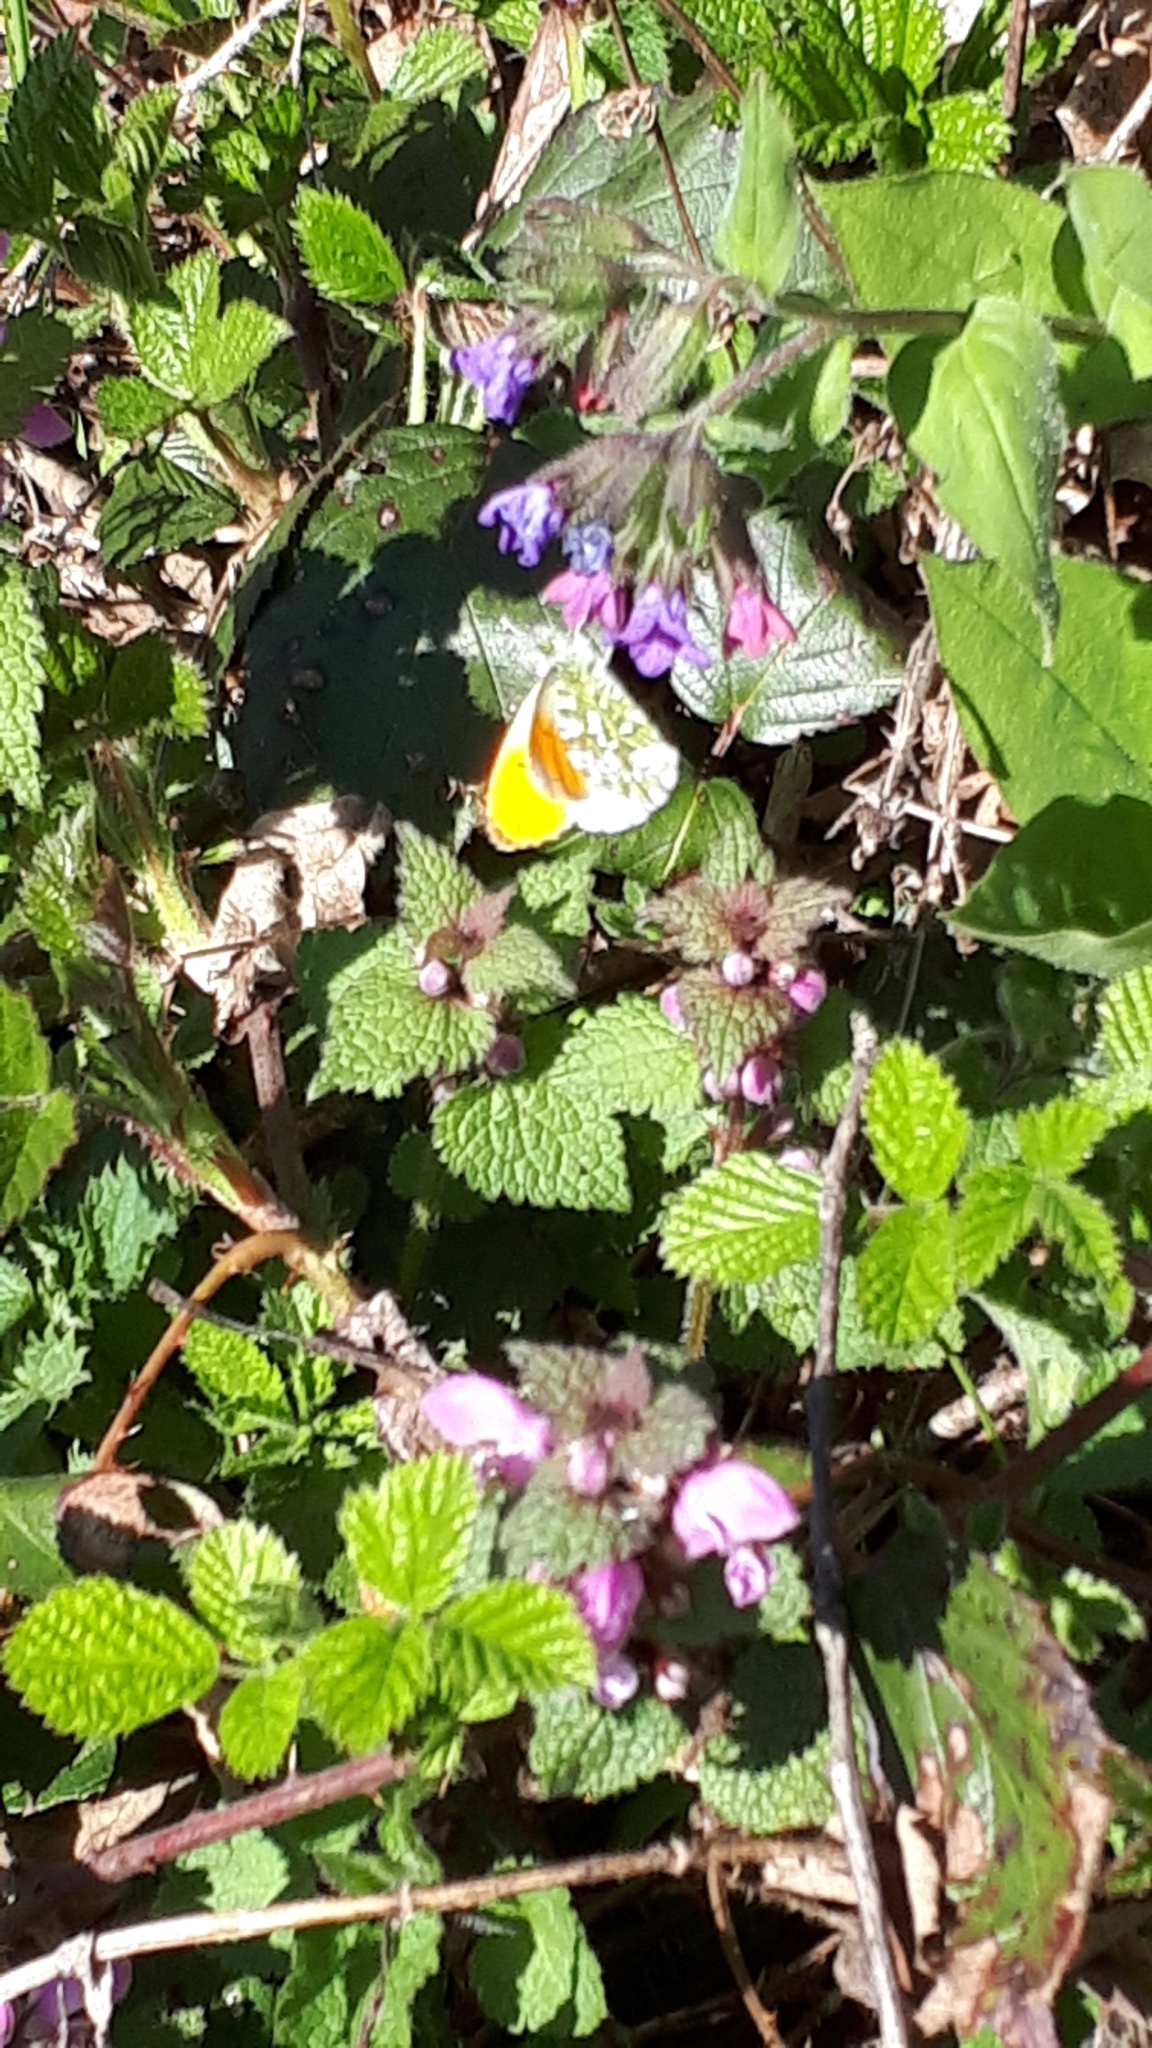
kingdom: Animalia
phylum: Arthropoda
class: Insecta
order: Lepidoptera
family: Pieridae
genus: Anthocharis
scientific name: Anthocharis cardamines
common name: Orange-tip
